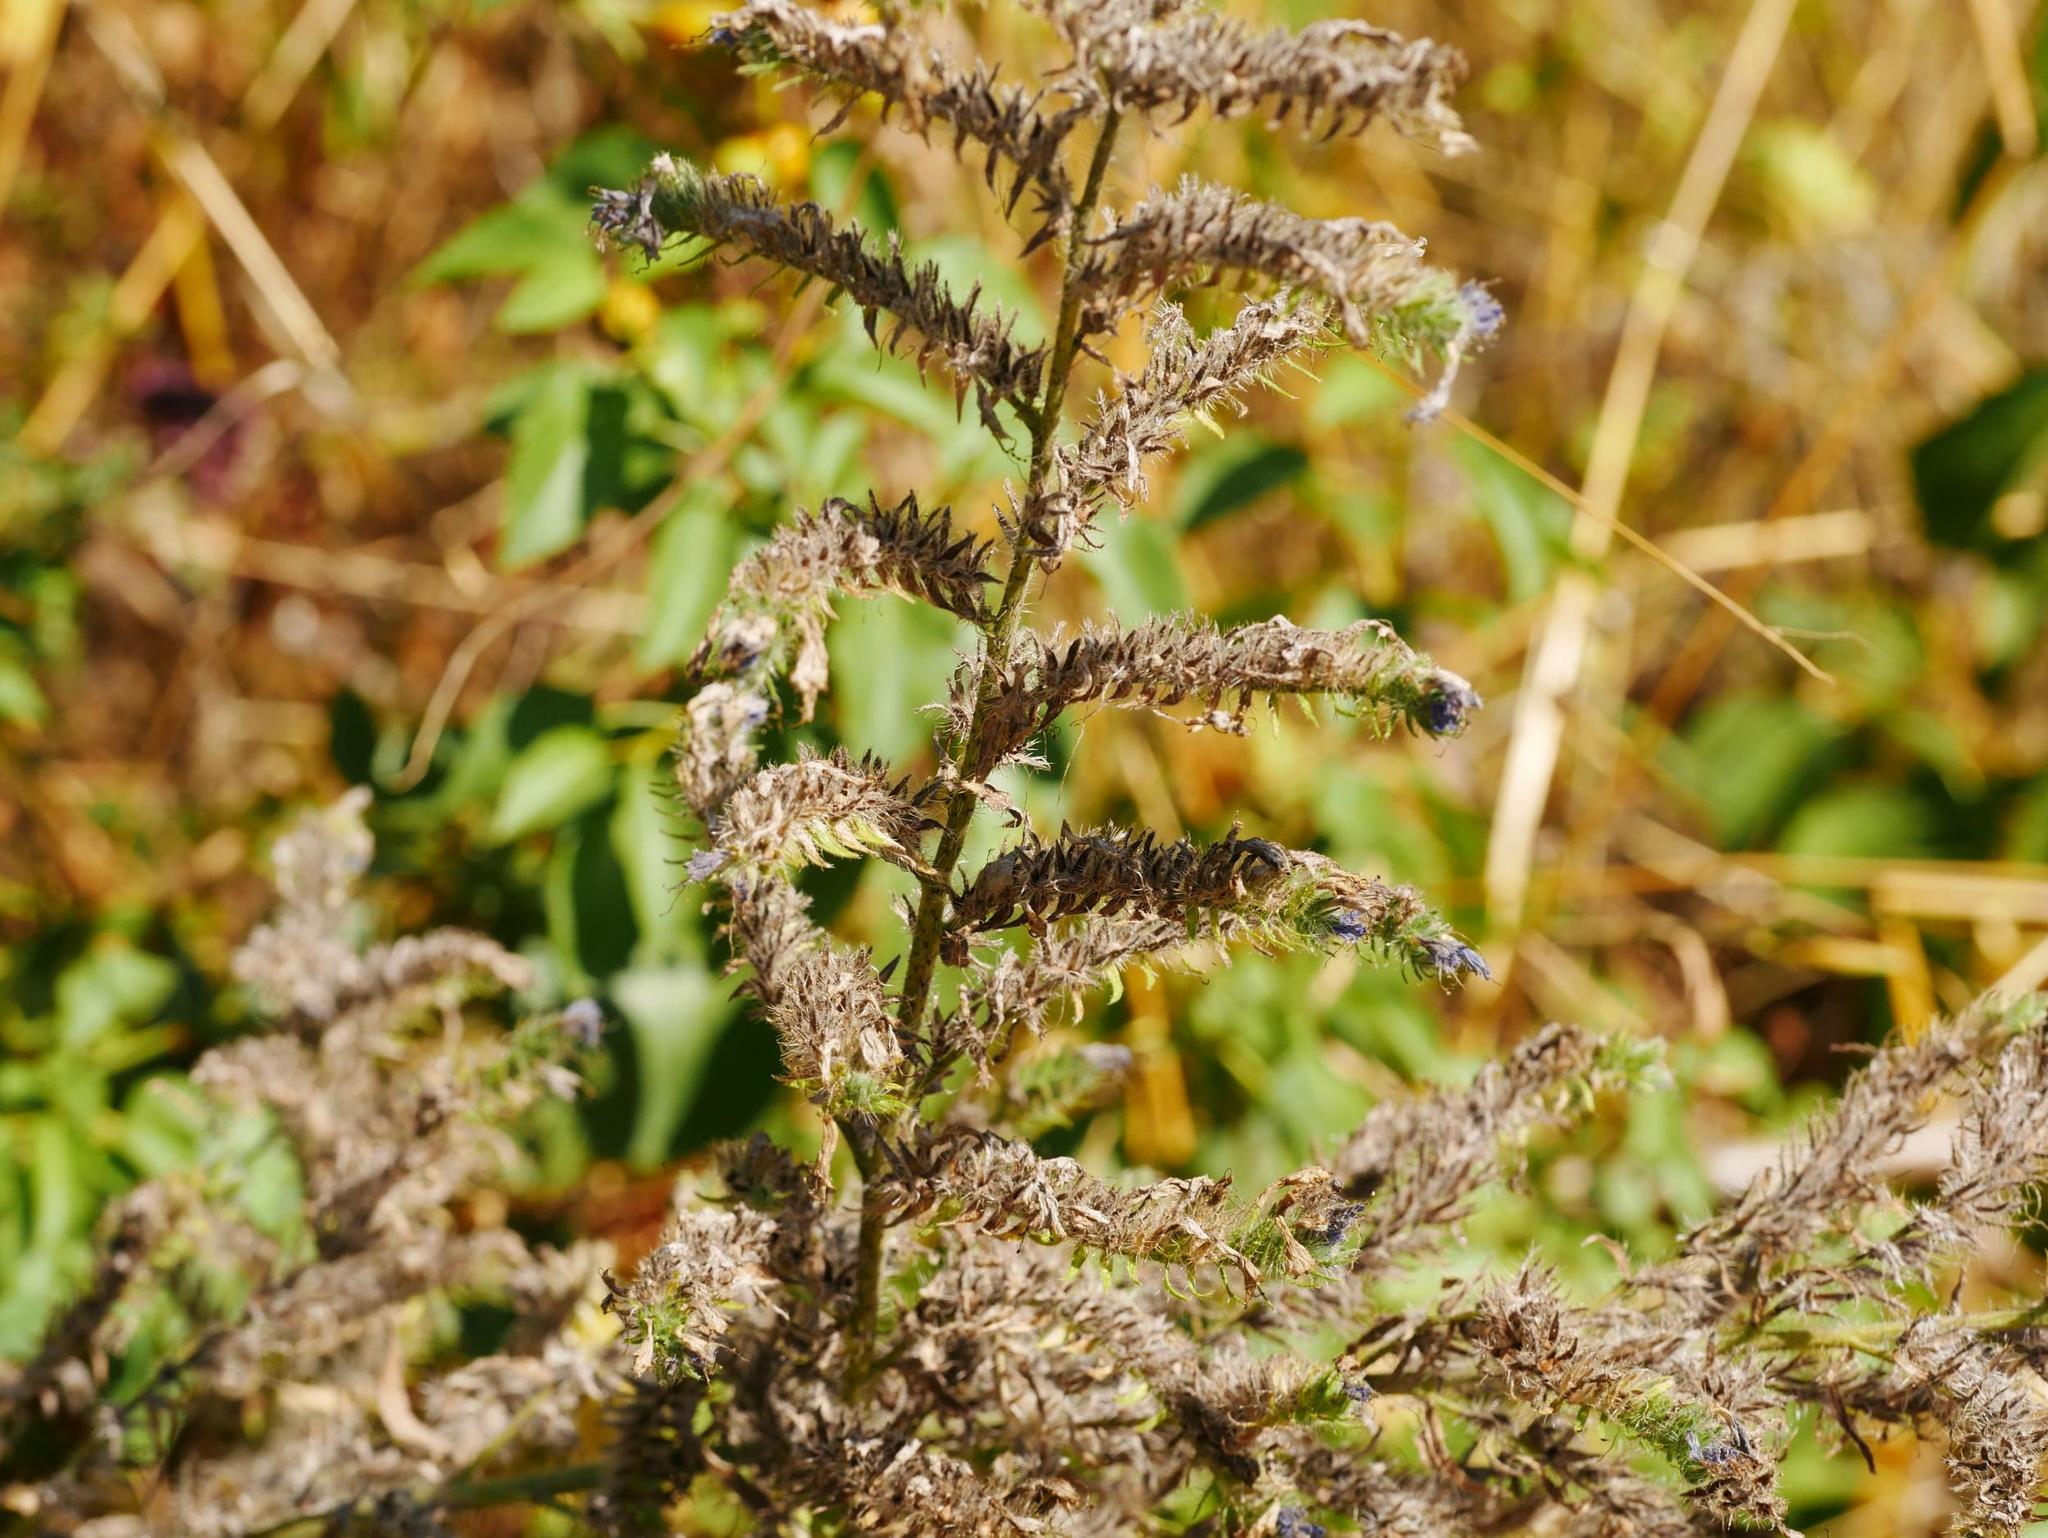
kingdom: Plantae
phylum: Tracheophyta
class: Magnoliopsida
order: Boraginales
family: Boraginaceae
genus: Echium
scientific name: Echium vulgare
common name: Common viper's bugloss
